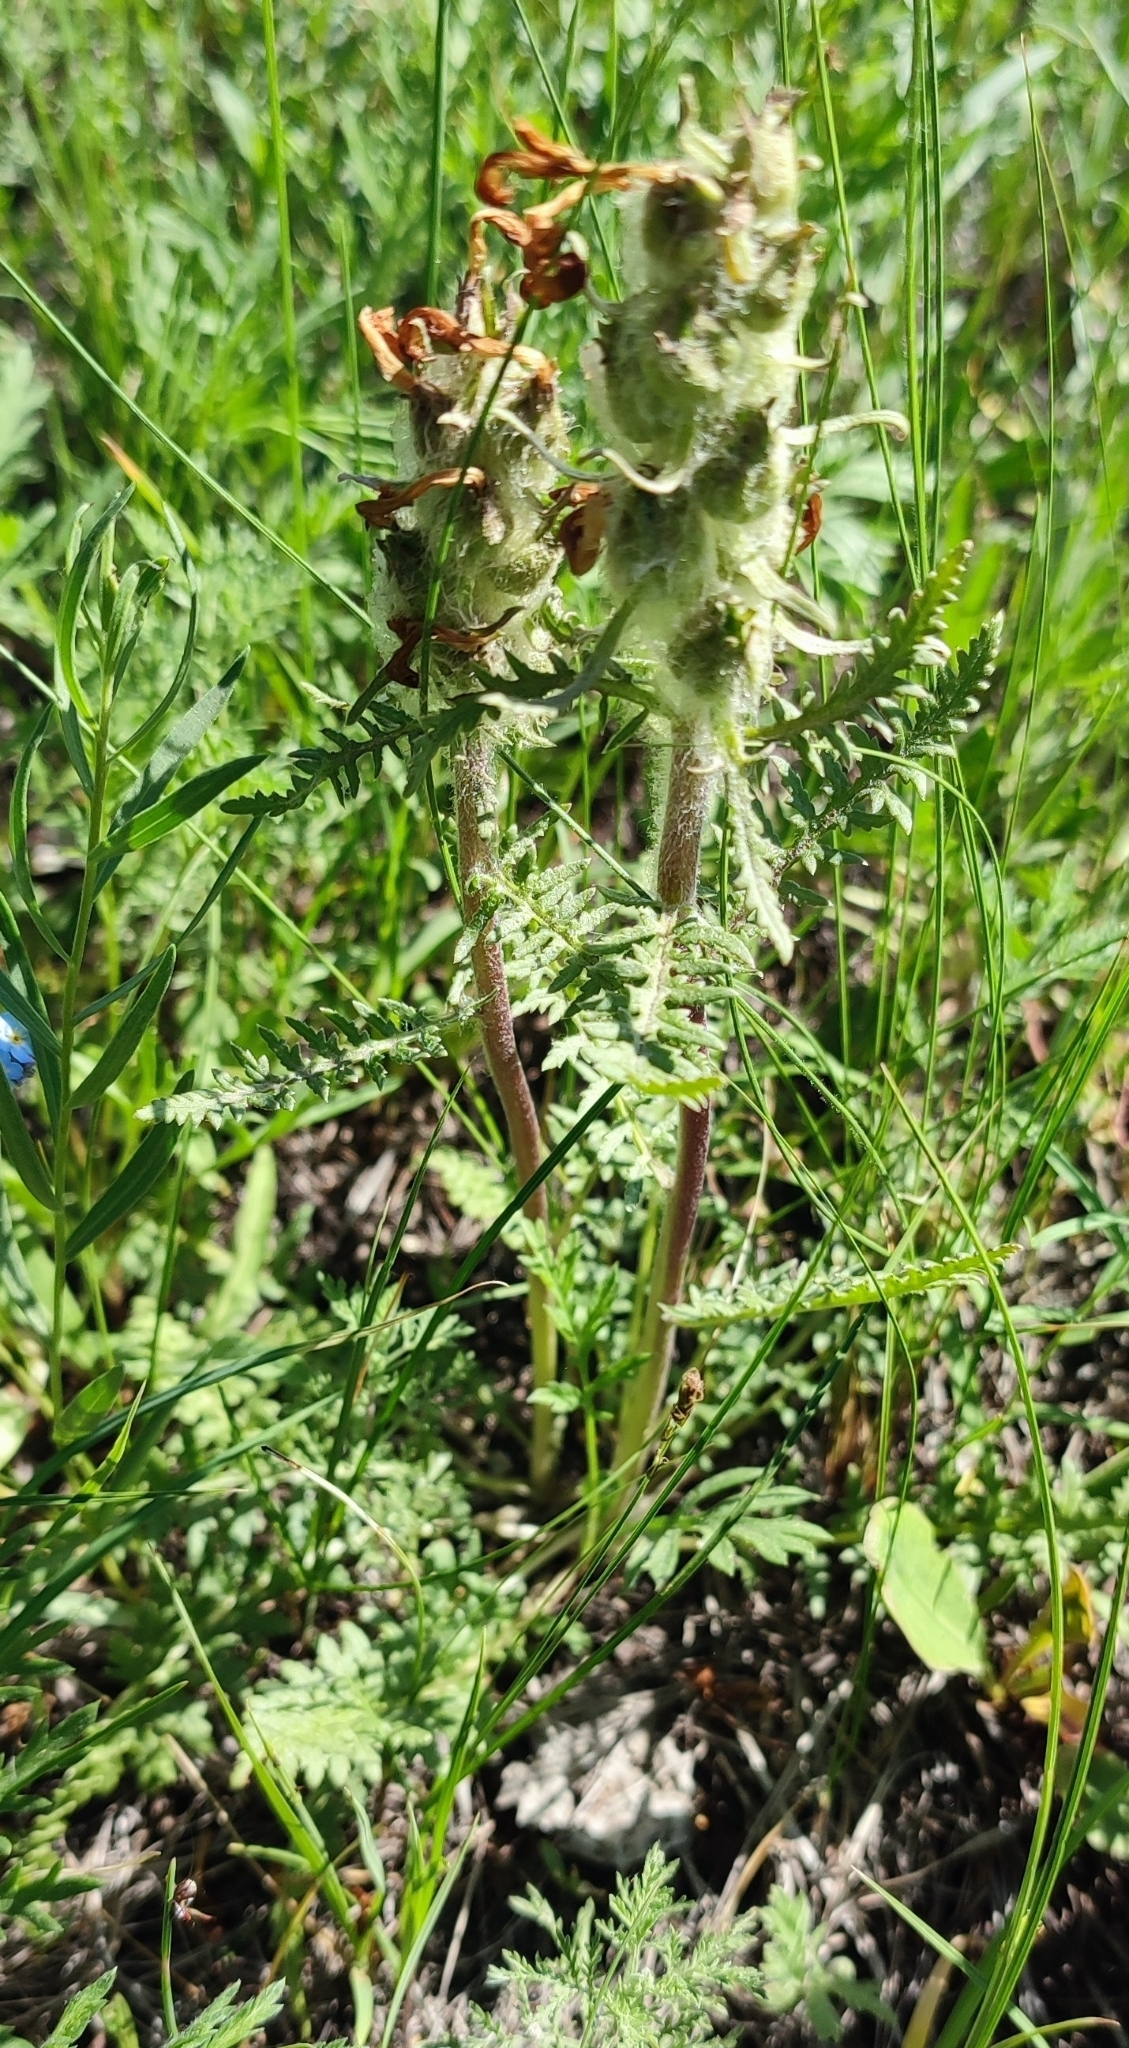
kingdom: Plantae
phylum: Tracheophyta
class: Magnoliopsida
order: Lamiales
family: Orobanchaceae
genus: Pedicularis
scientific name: Pedicularis dasystachys
